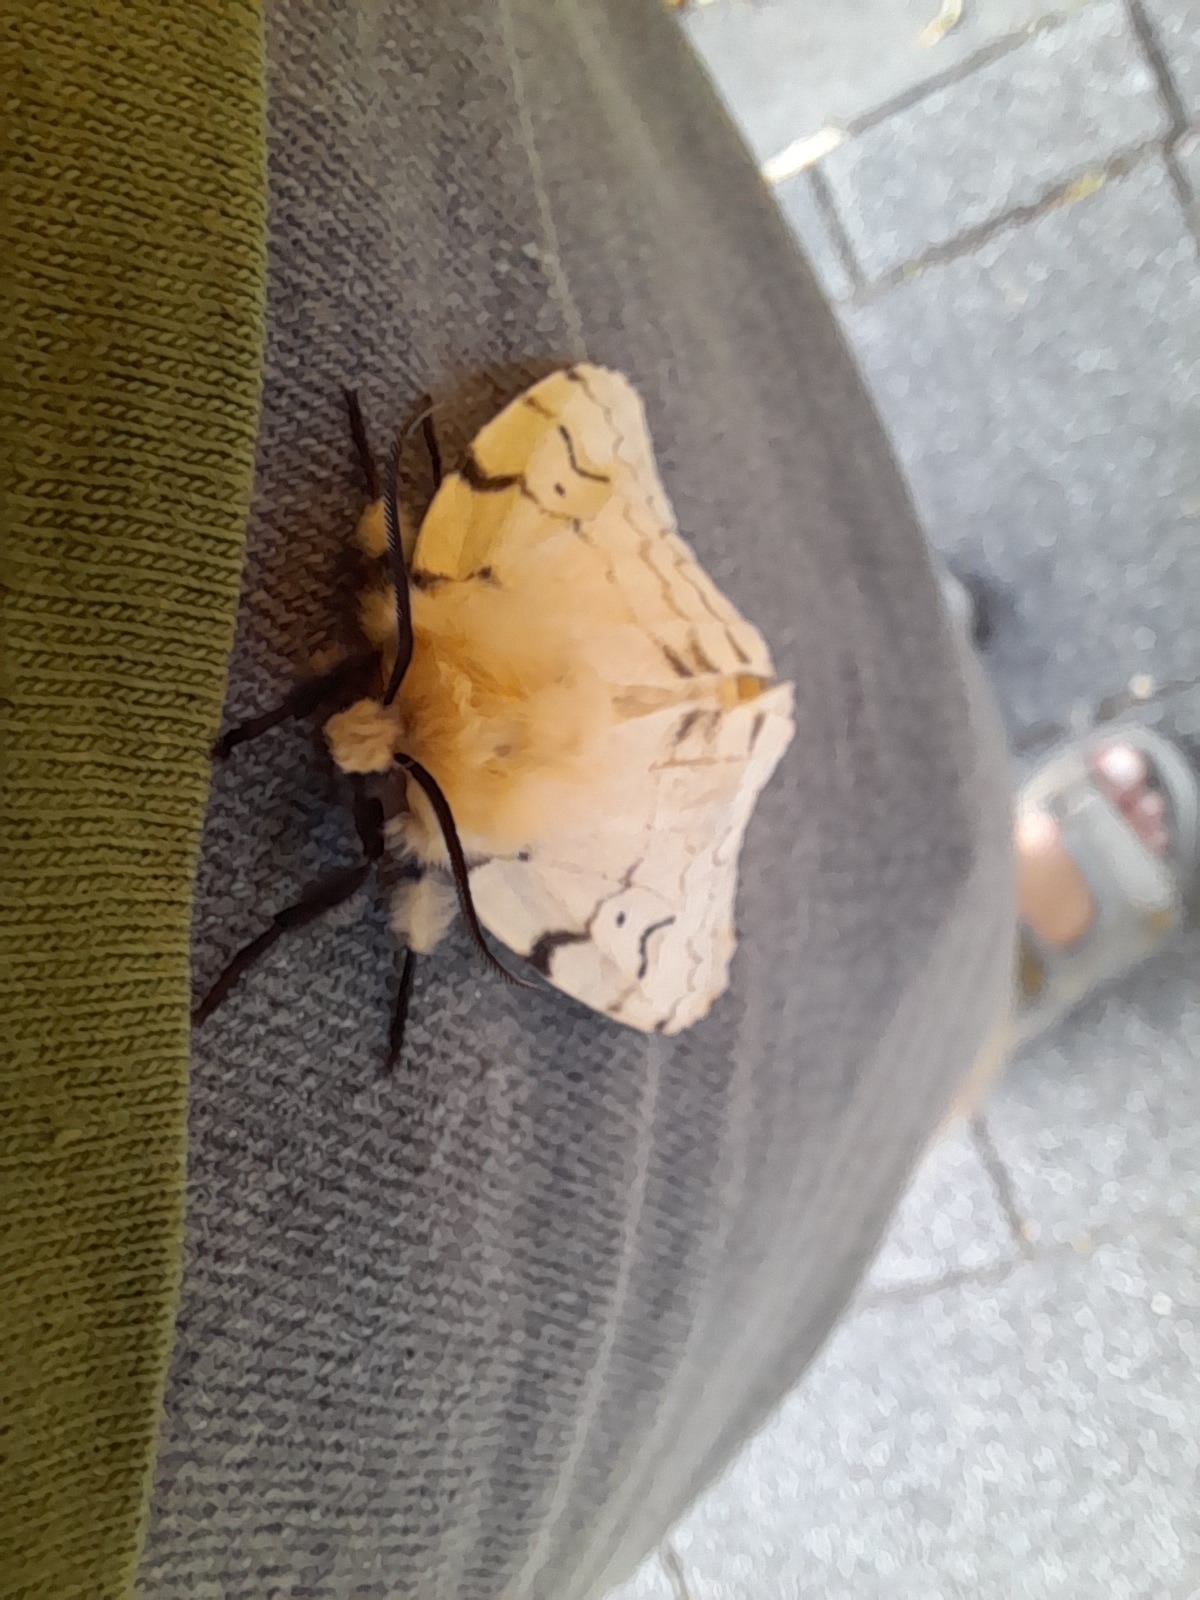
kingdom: Animalia
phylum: Arthropoda
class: Insecta
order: Lepidoptera
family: Erebidae
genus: Lymantria
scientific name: Lymantria dispar
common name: Gypsy moth
